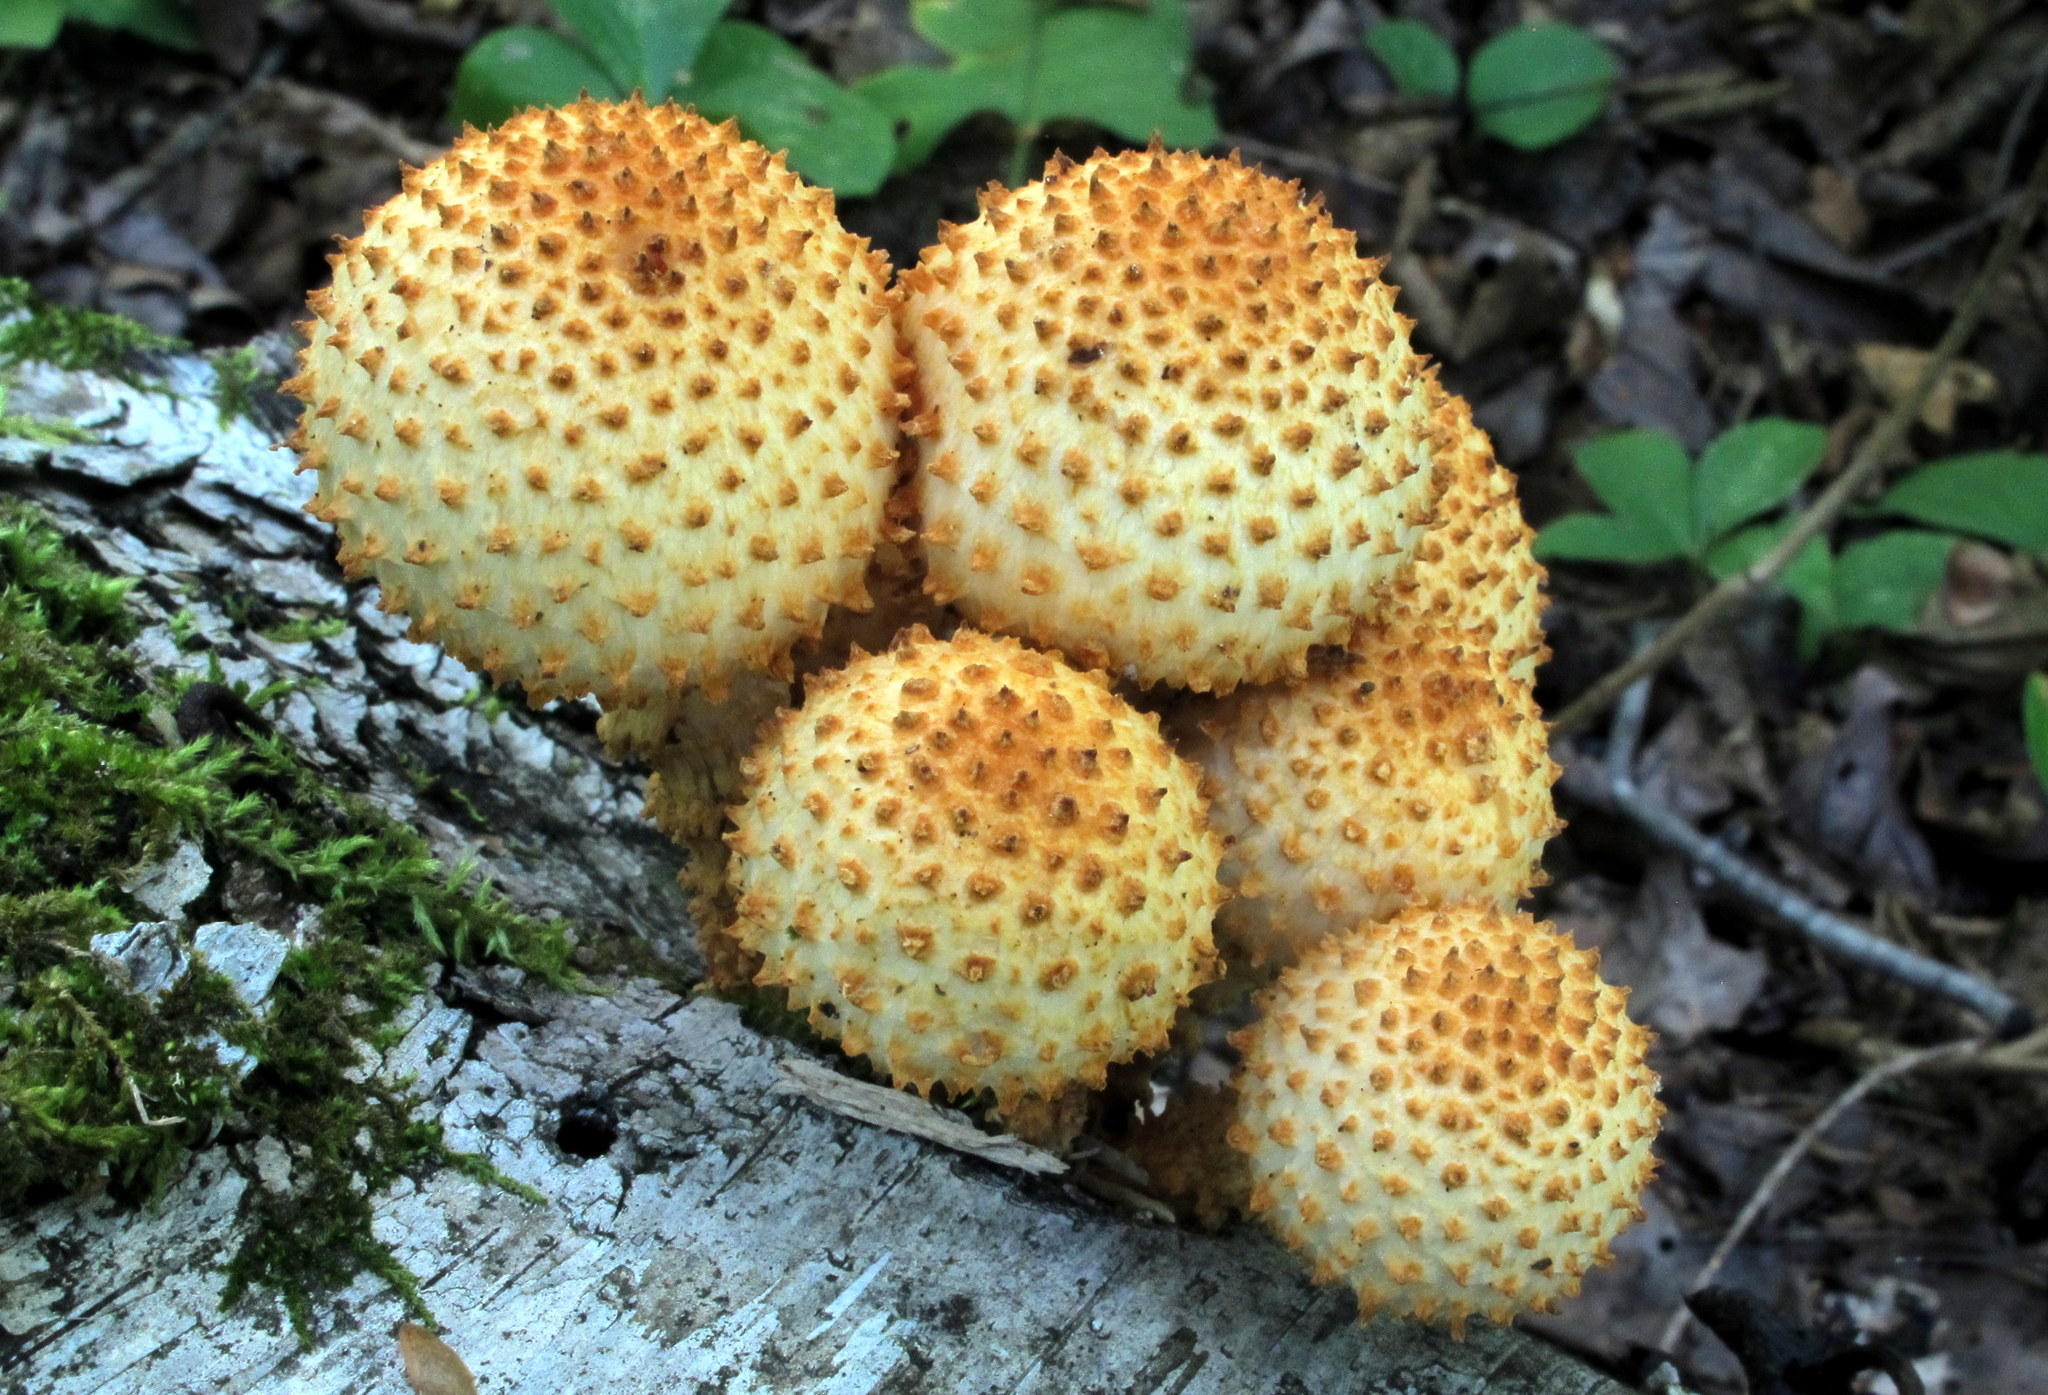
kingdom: Fungi
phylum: Basidiomycota
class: Agaricomycetes
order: Agaricales
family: Strophariaceae
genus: Pholiota
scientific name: Pholiota squarrosoides
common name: Sharp-scaly pholiota
